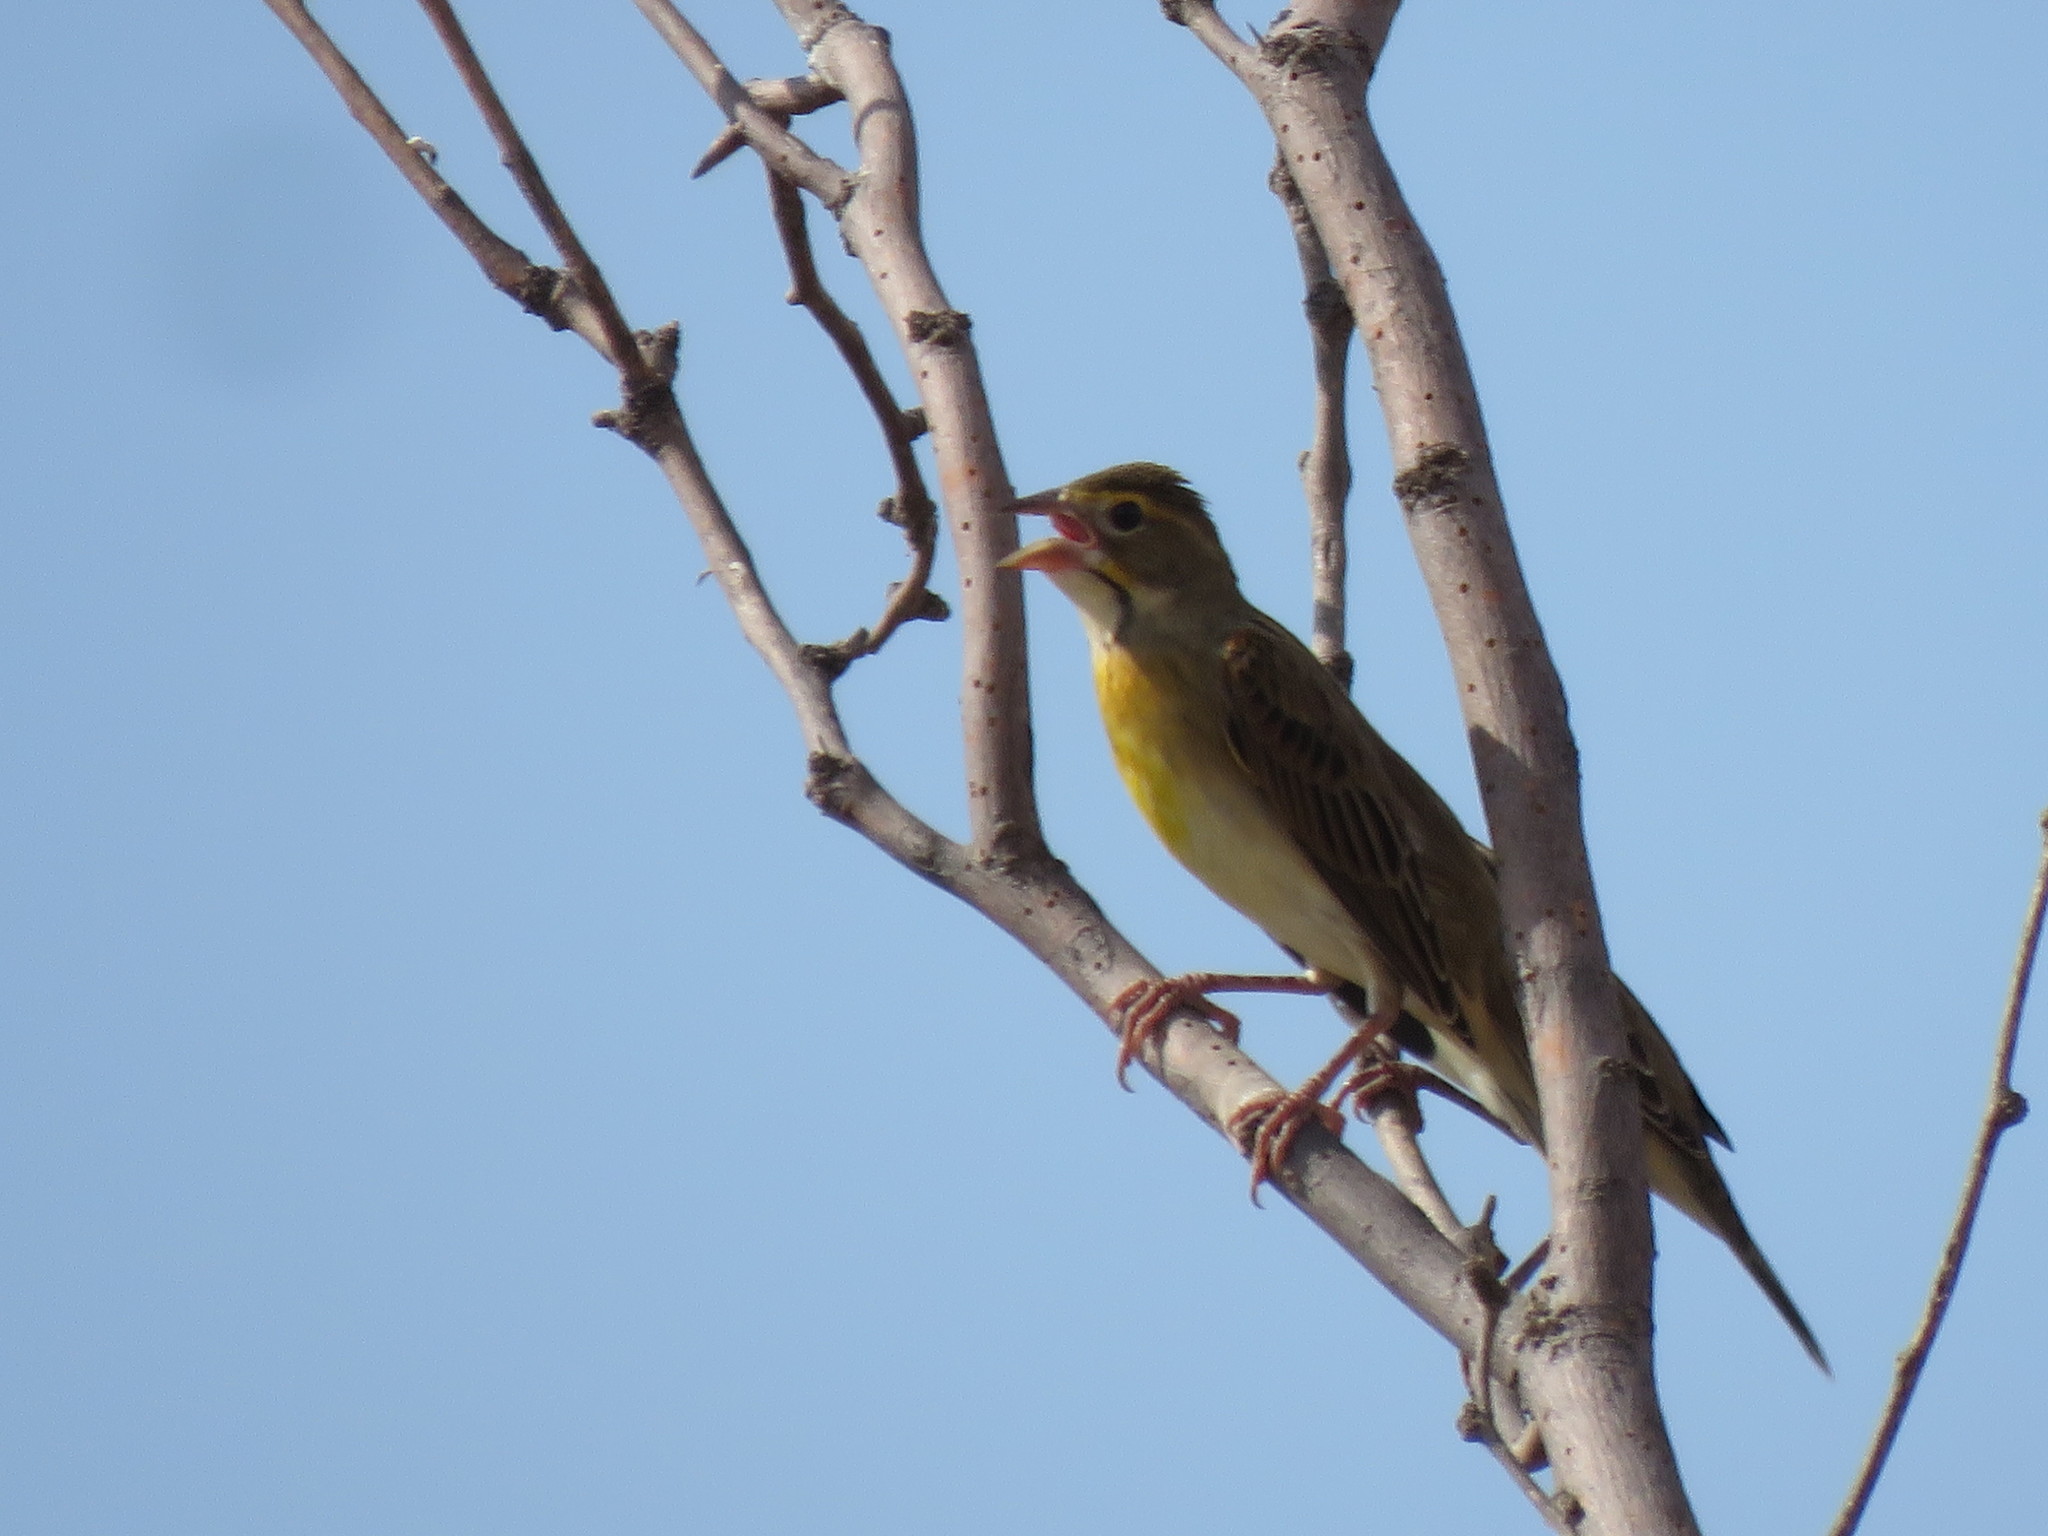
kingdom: Animalia
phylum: Chordata
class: Aves
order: Passeriformes
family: Cardinalidae
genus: Spiza
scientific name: Spiza americana
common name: Dickcissel
